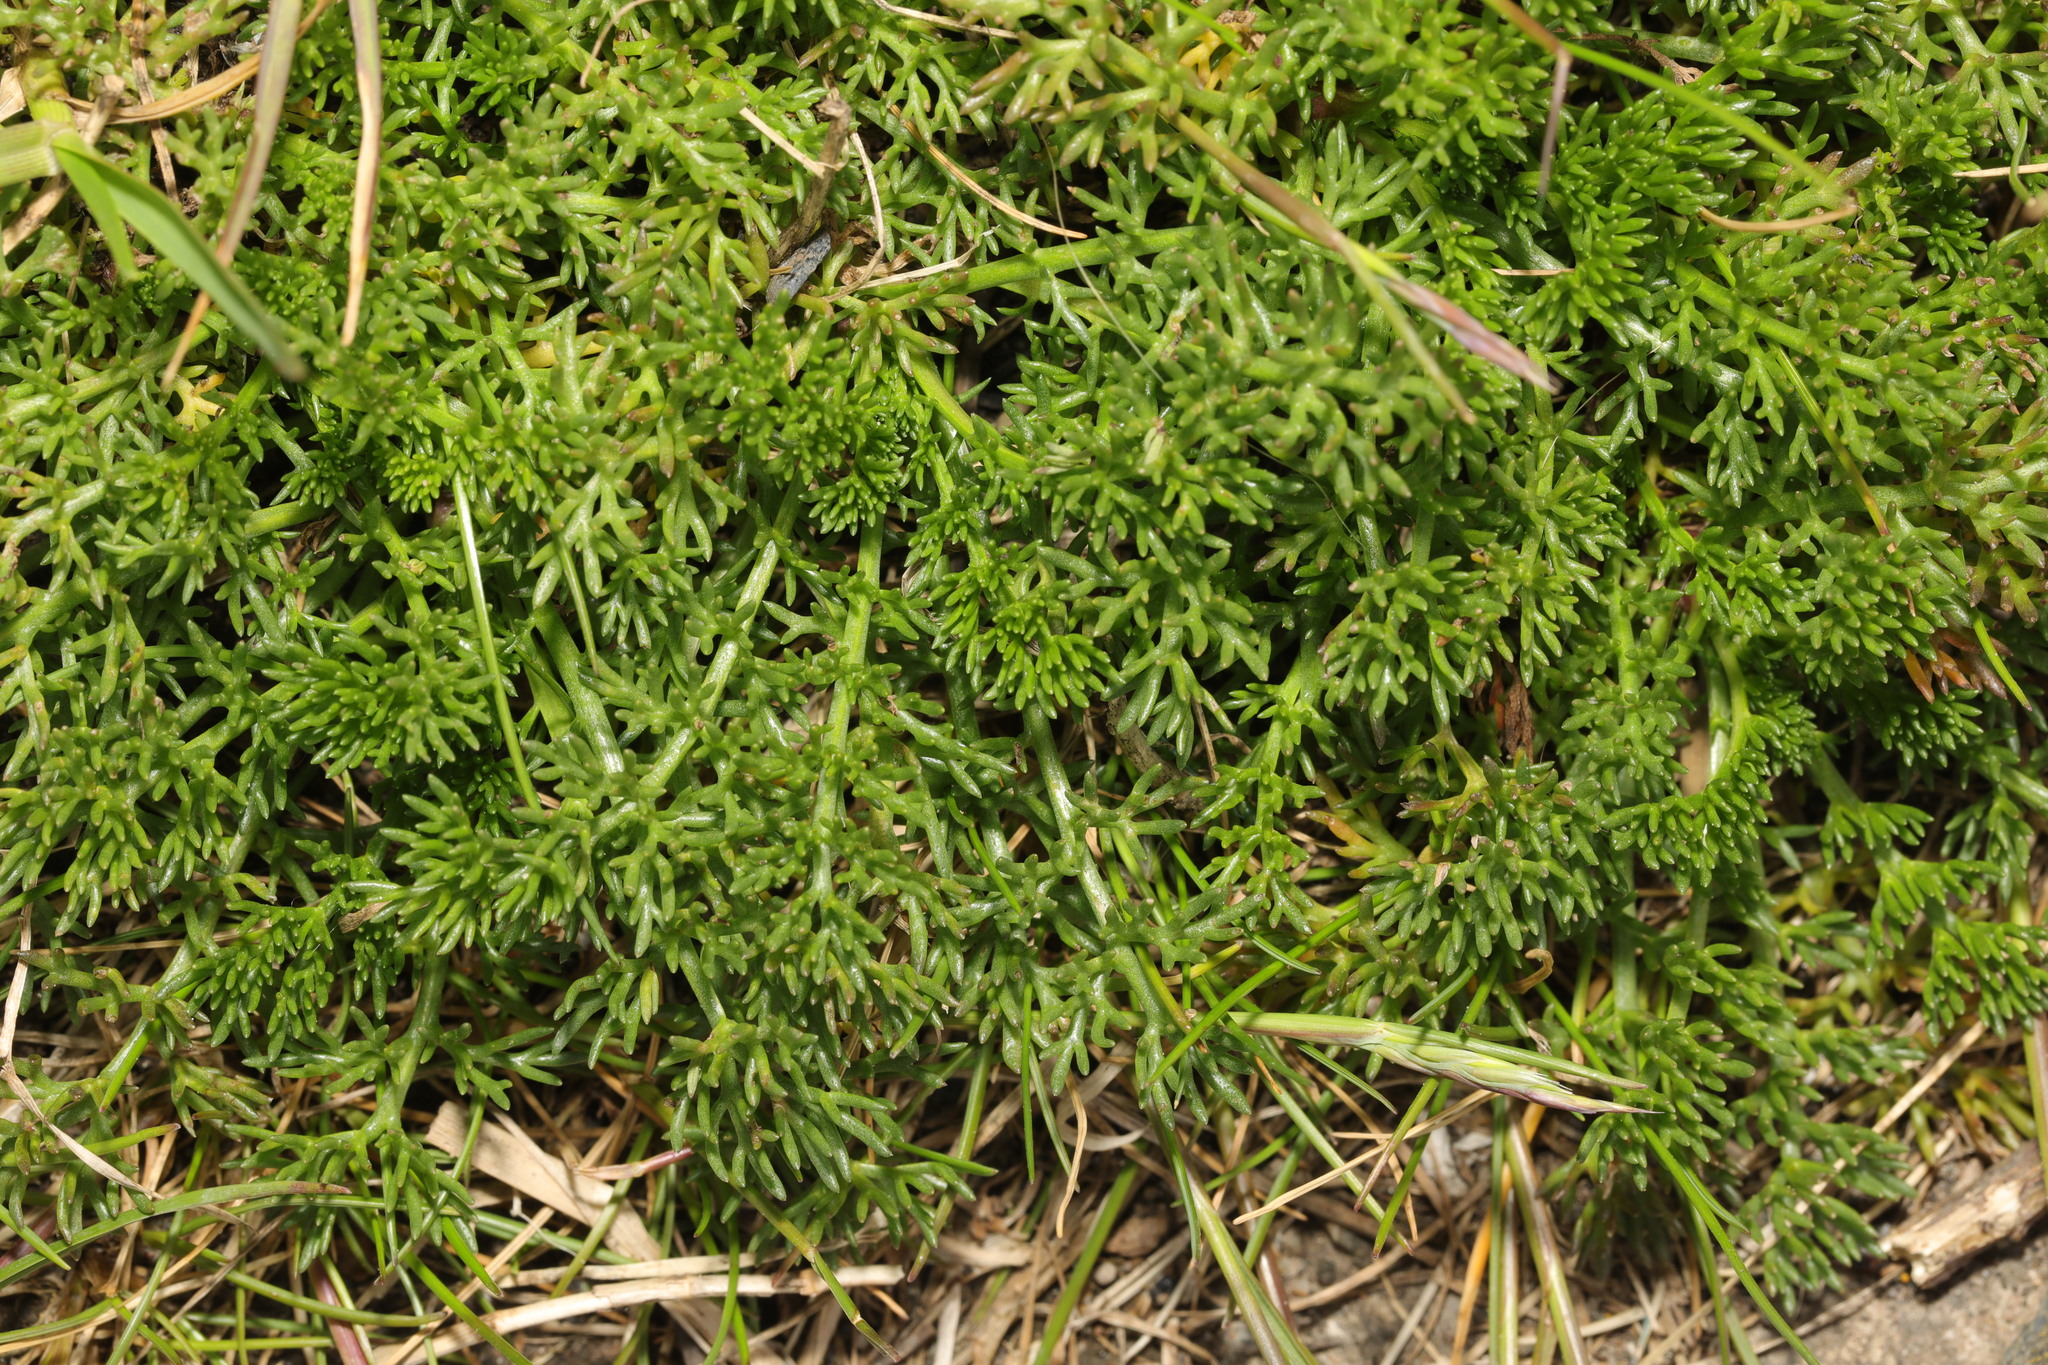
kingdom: Plantae
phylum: Tracheophyta
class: Magnoliopsida
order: Asterales
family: Asteraceae
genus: Tripleurospermum
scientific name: Tripleurospermum maritimum
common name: Sea mayweed
